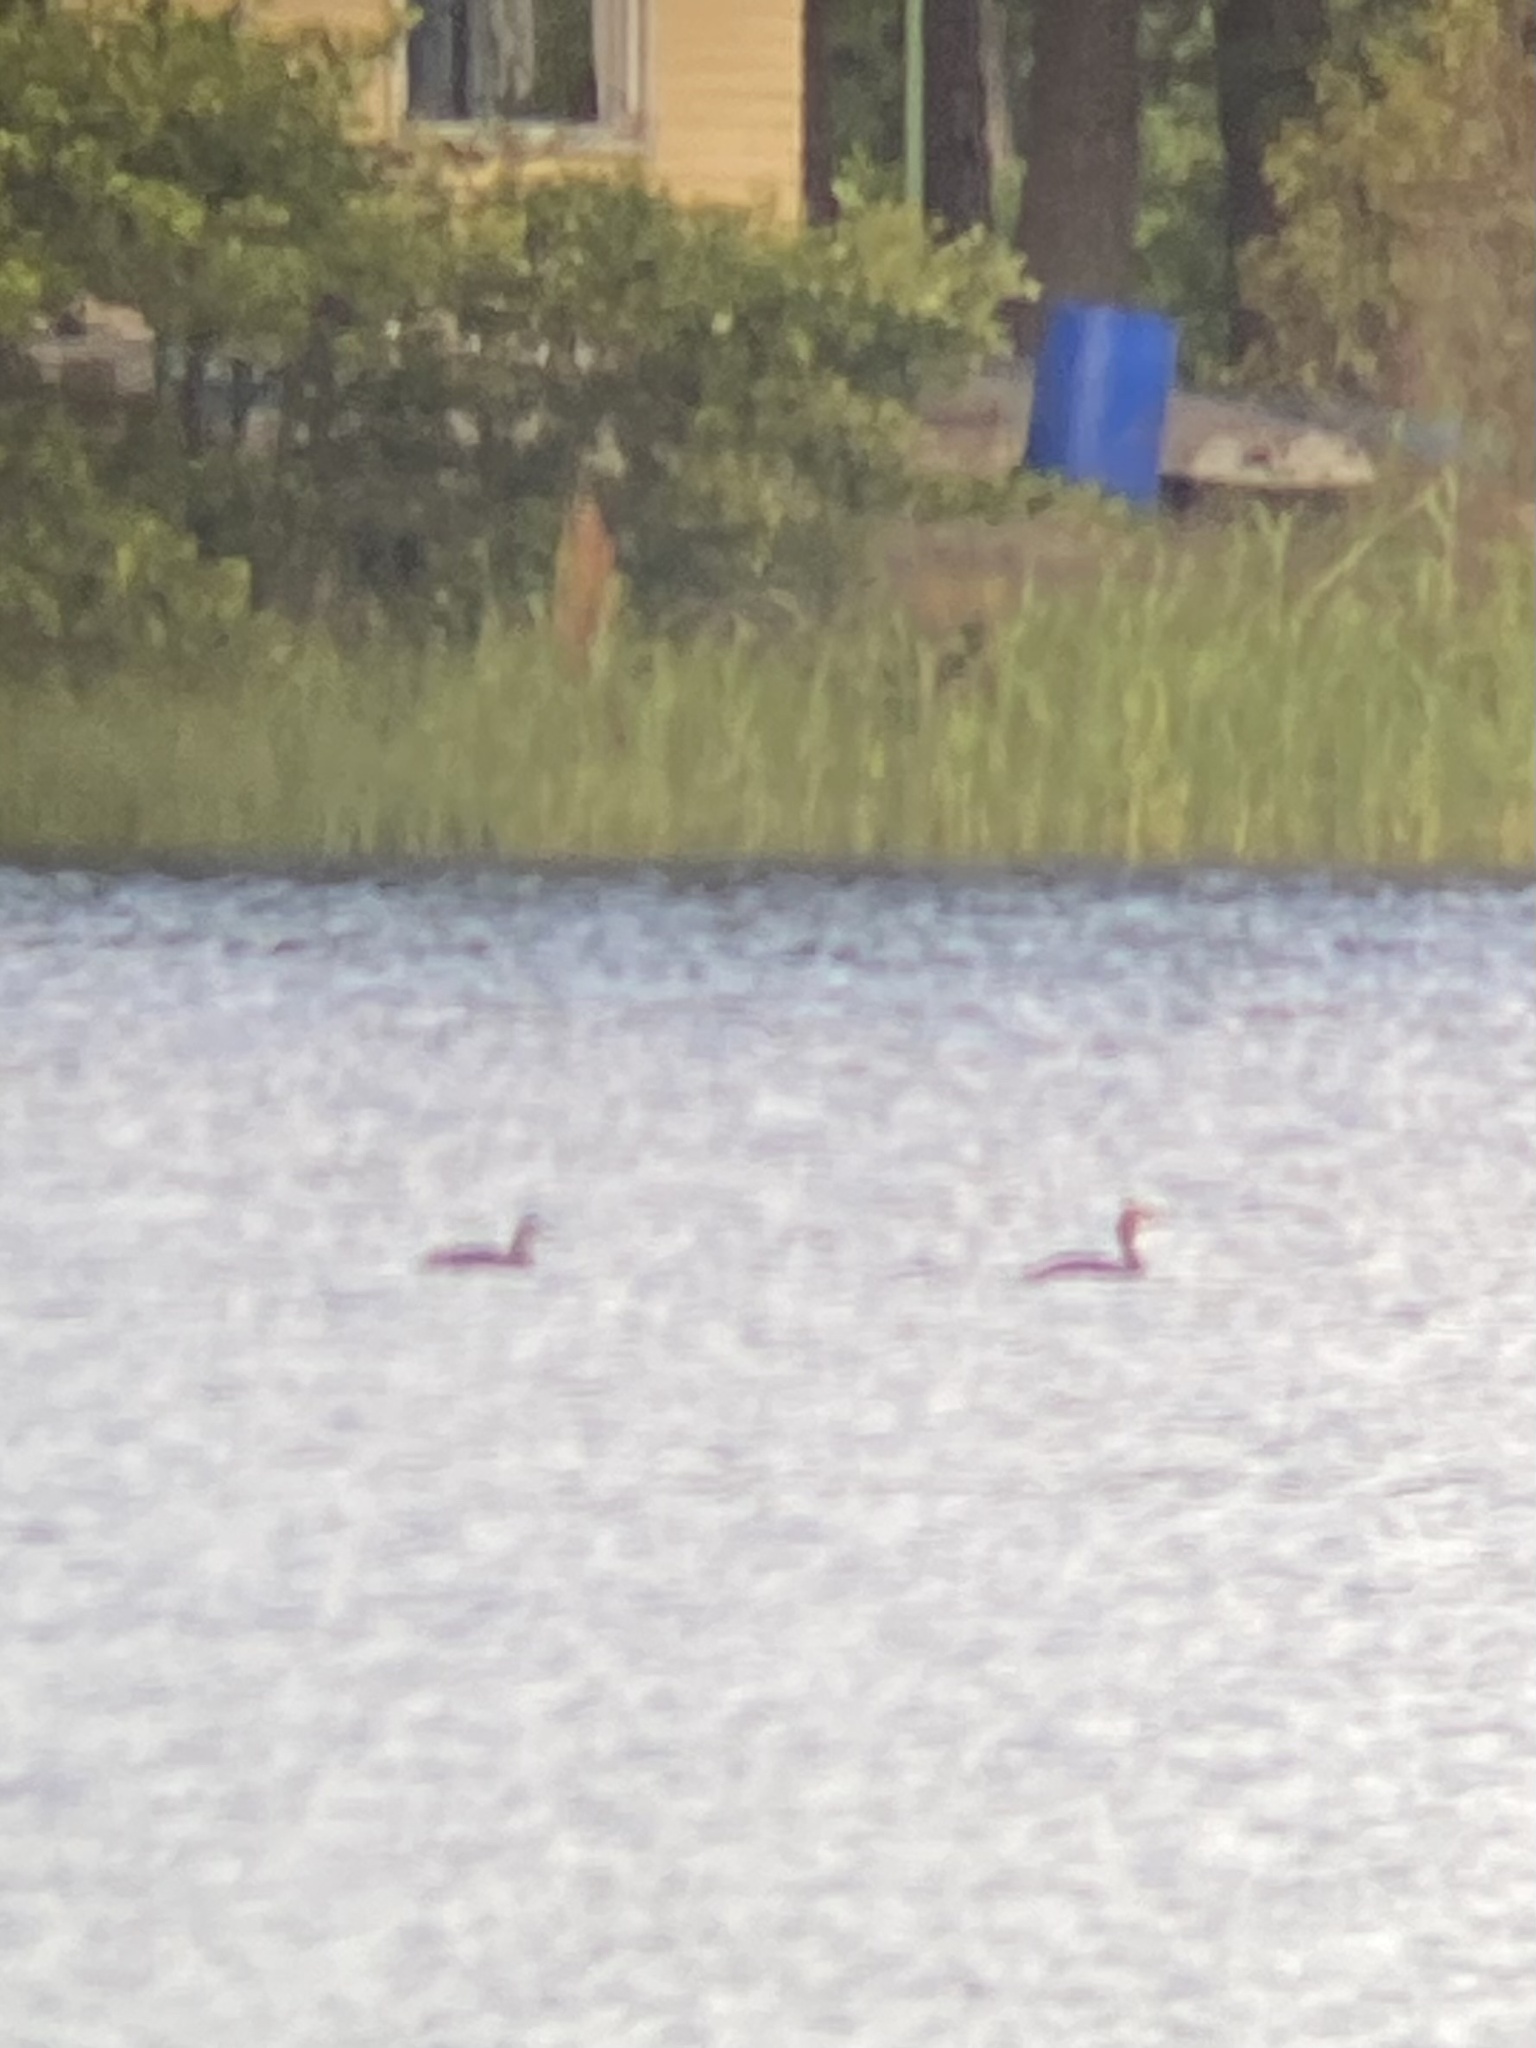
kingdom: Animalia
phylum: Chordata
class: Aves
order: Podicipediformes
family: Podicipedidae
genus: Podiceps
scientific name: Podiceps cristatus
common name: Great crested grebe
